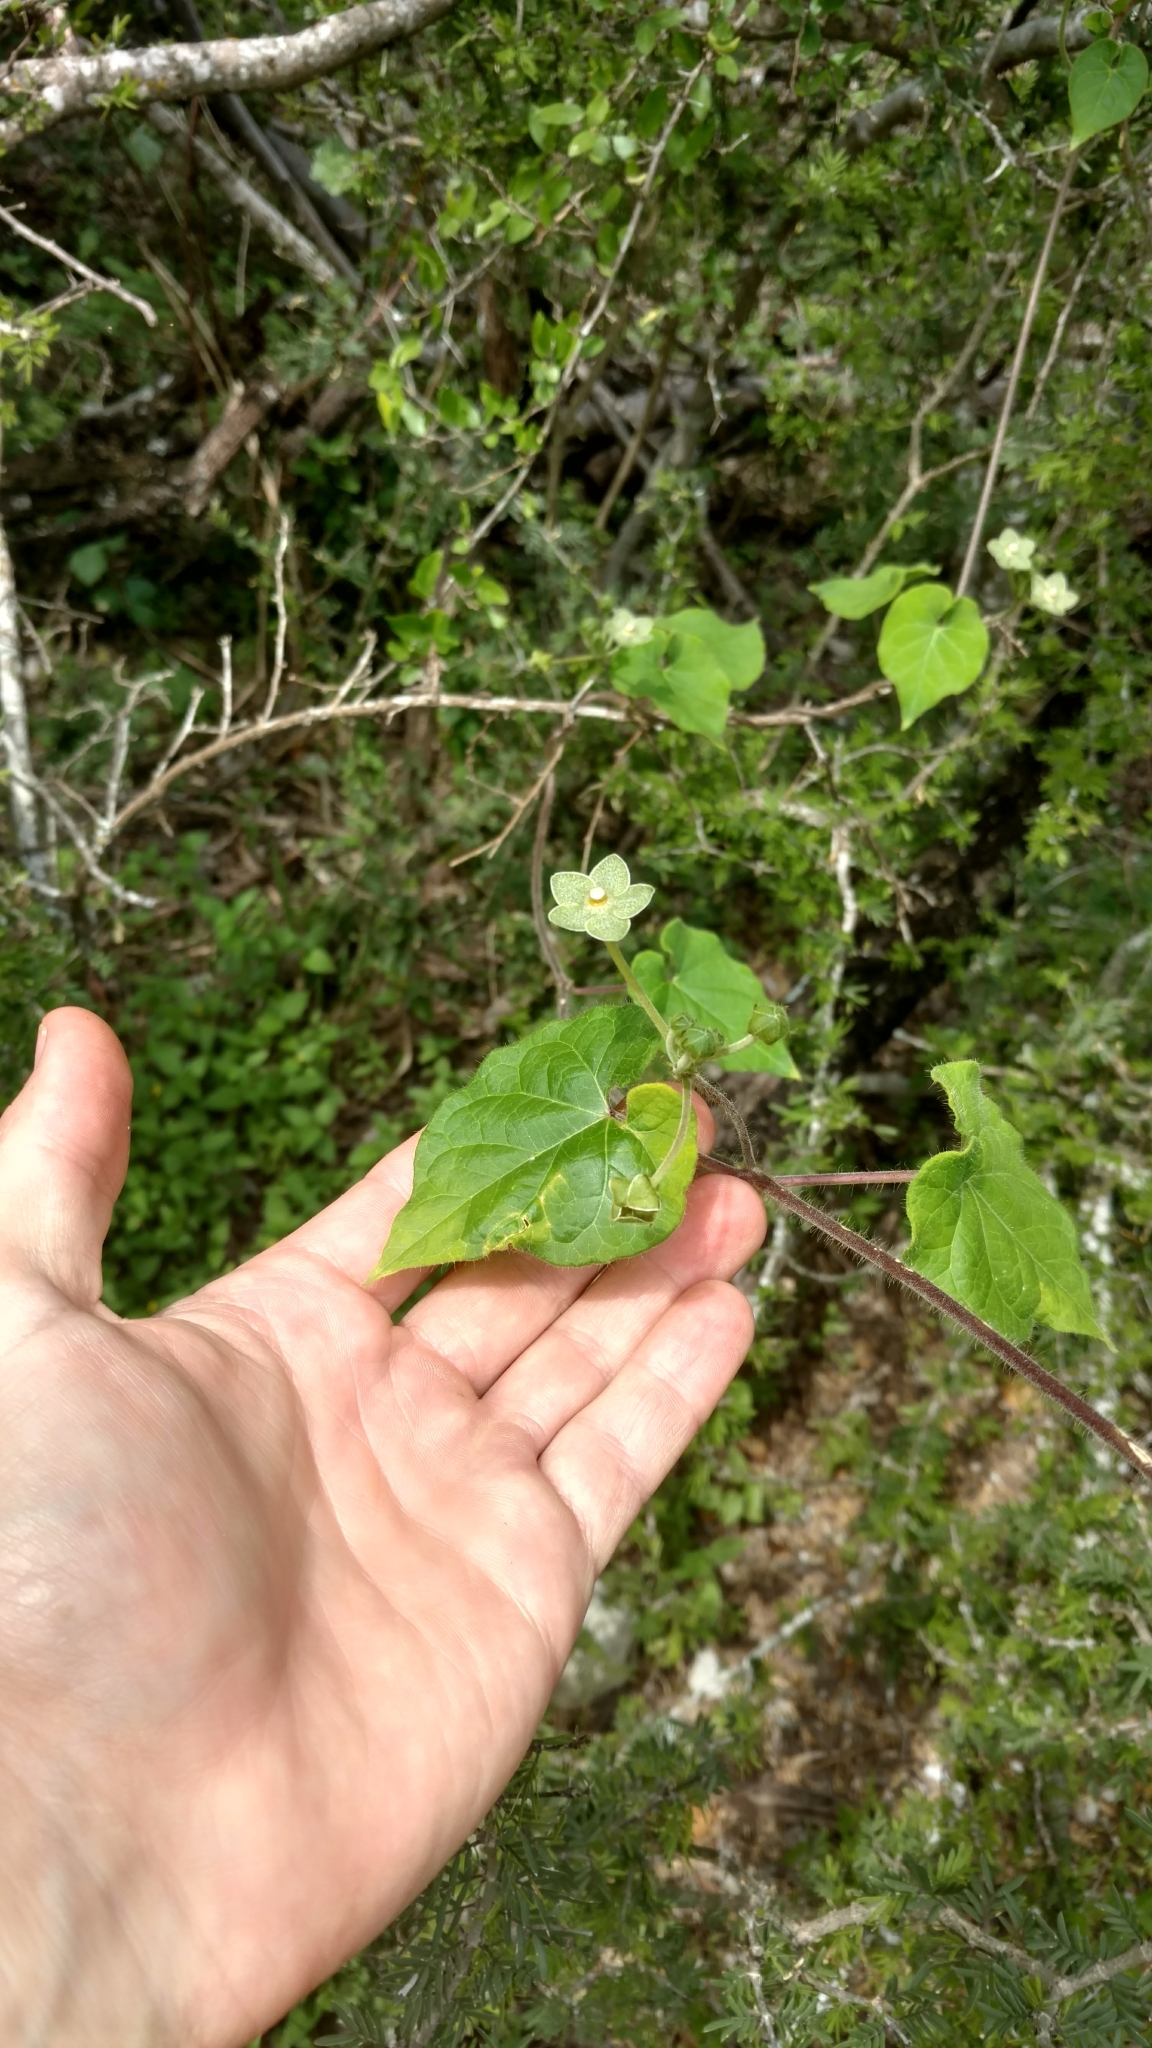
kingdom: Plantae
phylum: Tracheophyta
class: Magnoliopsida
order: Gentianales
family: Apocynaceae
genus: Dictyanthus
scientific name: Dictyanthus reticulatus
